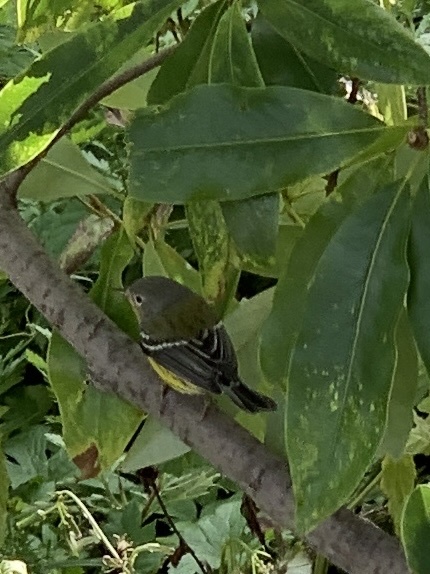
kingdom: Animalia
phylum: Chordata
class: Aves
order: Passeriformes
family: Parulidae
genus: Setophaga
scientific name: Setophaga magnolia
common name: Magnolia warbler
